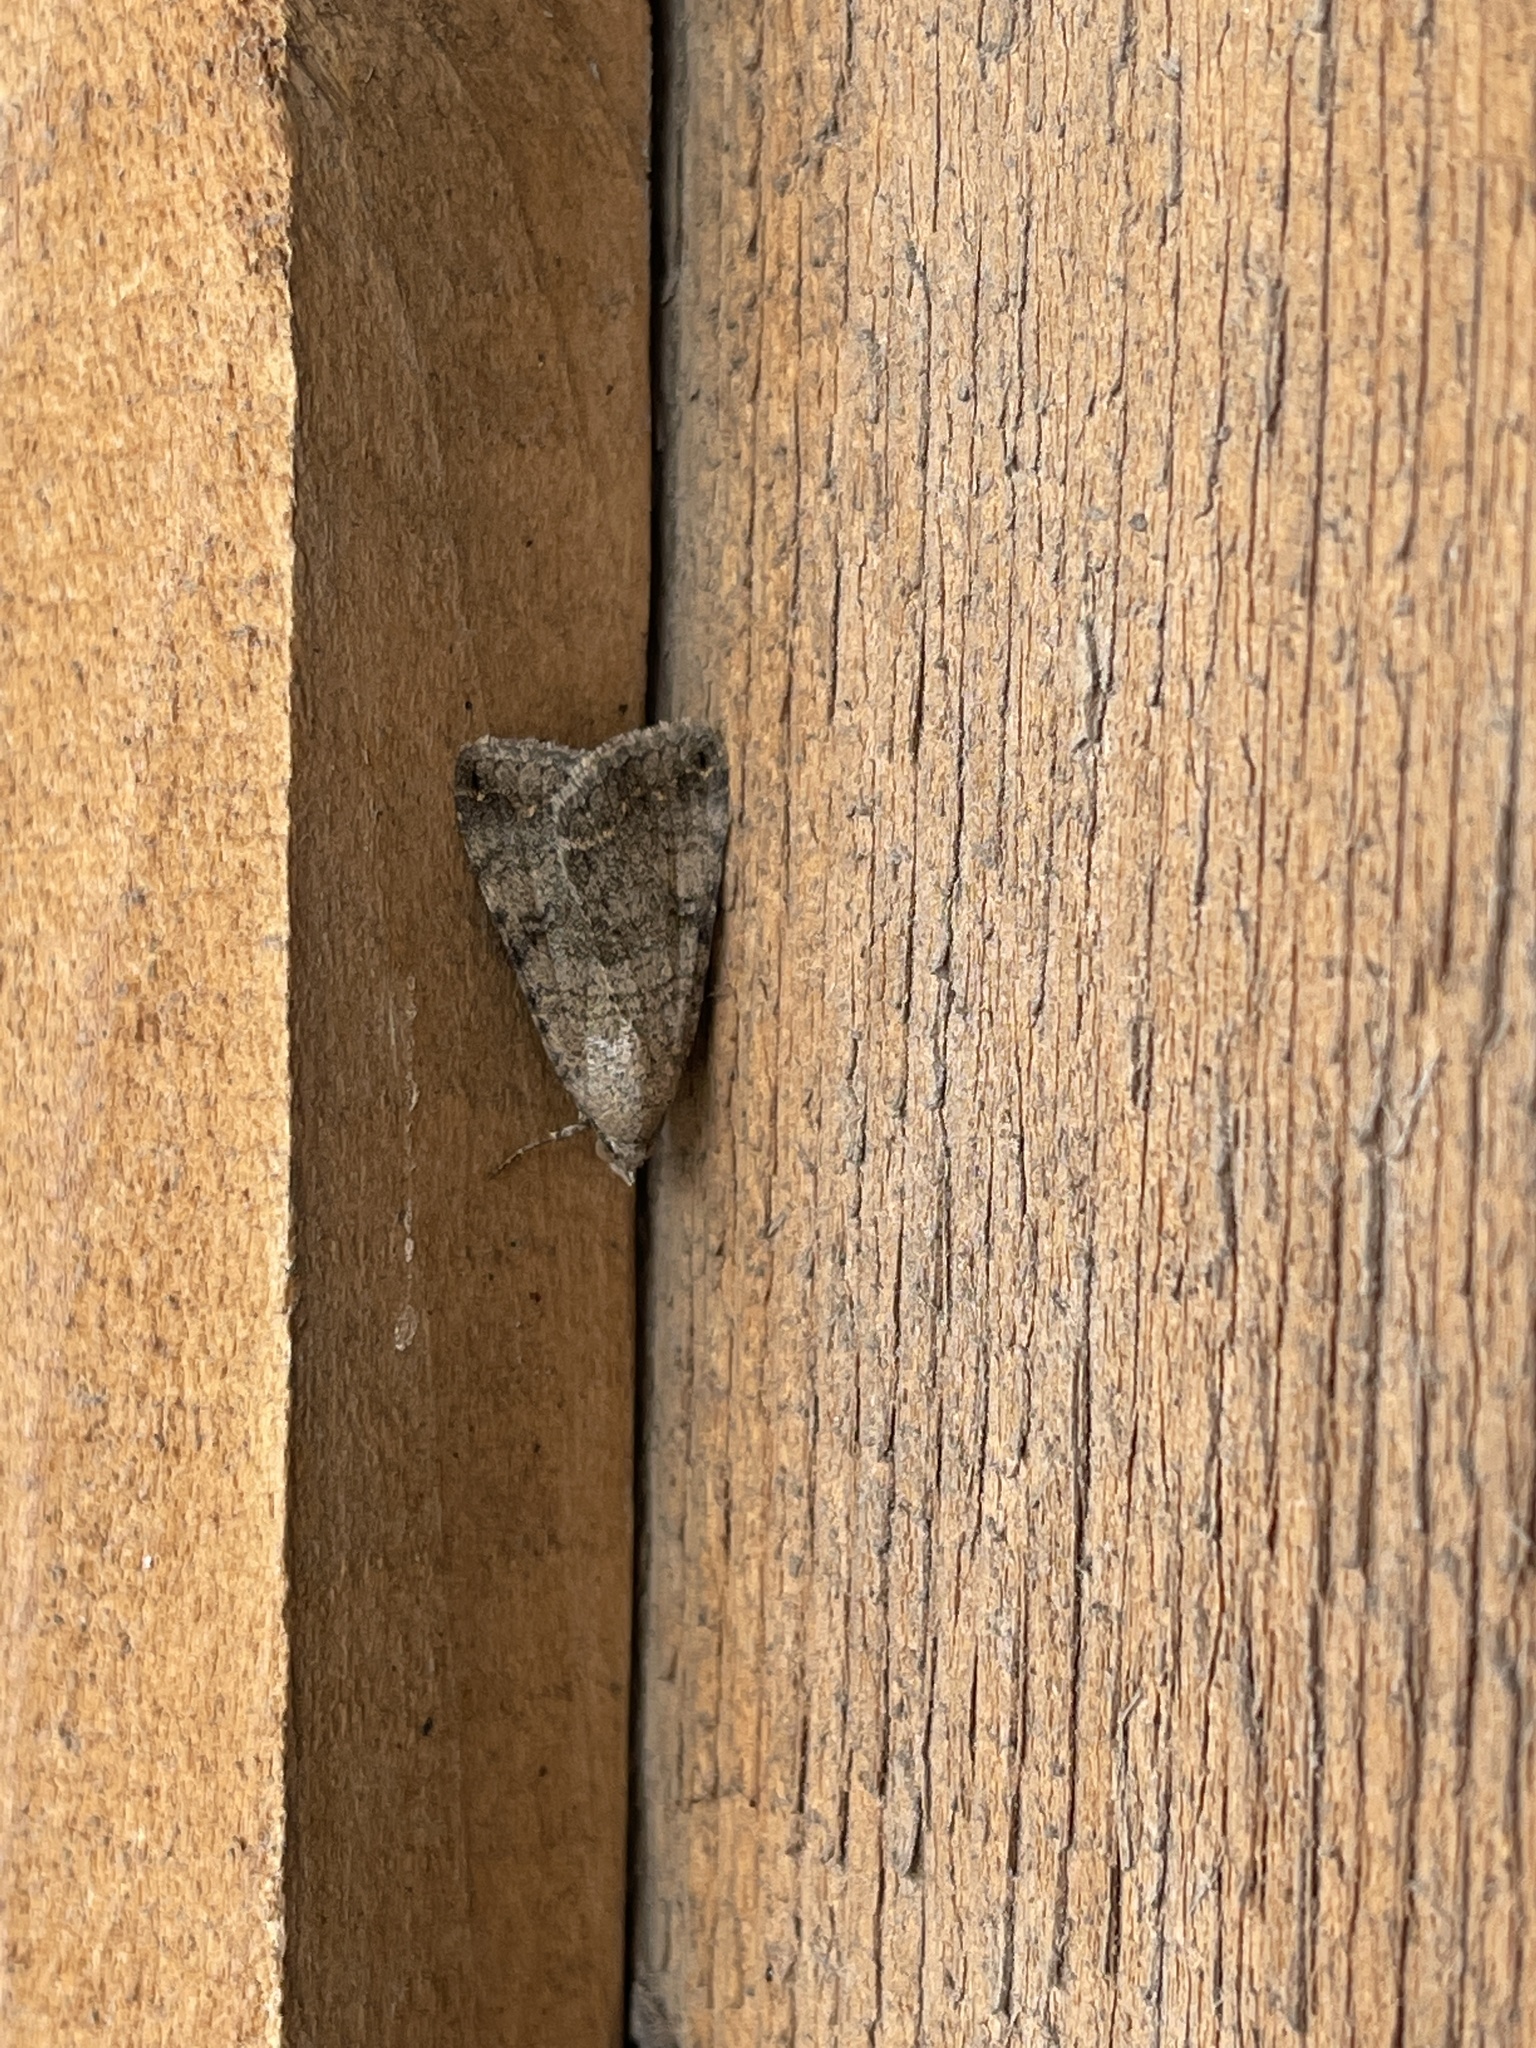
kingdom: Animalia
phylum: Arthropoda
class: Insecta
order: Lepidoptera
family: Erebidae
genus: Bulia
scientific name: Bulia deducta
